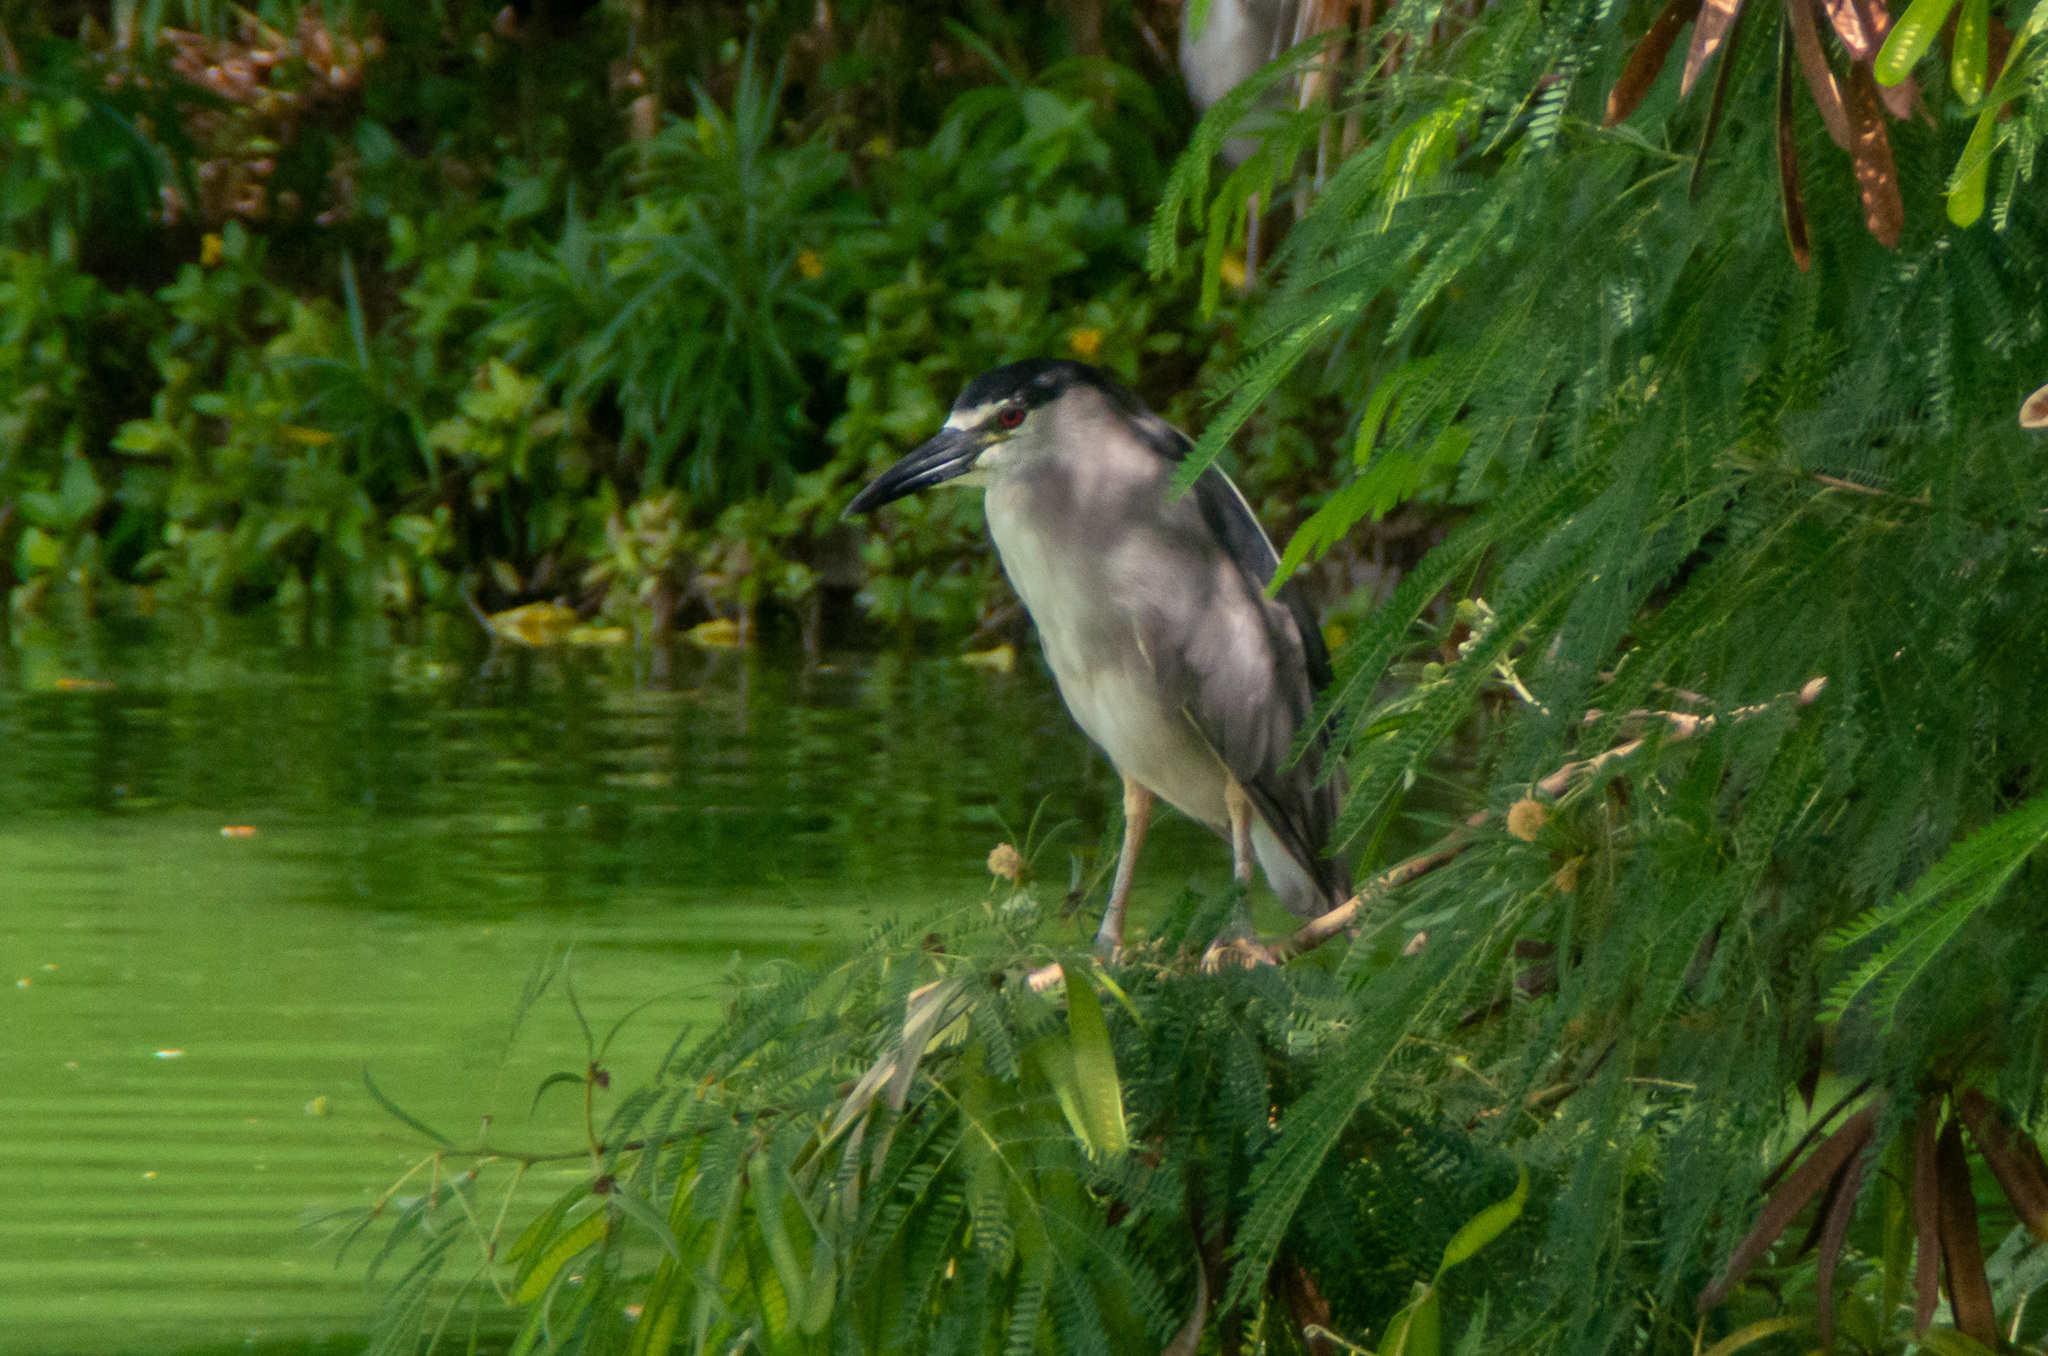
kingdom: Animalia
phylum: Chordata
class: Aves
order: Pelecaniformes
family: Ardeidae
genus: Nycticorax
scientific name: Nycticorax nycticorax
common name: Black-crowned night heron
